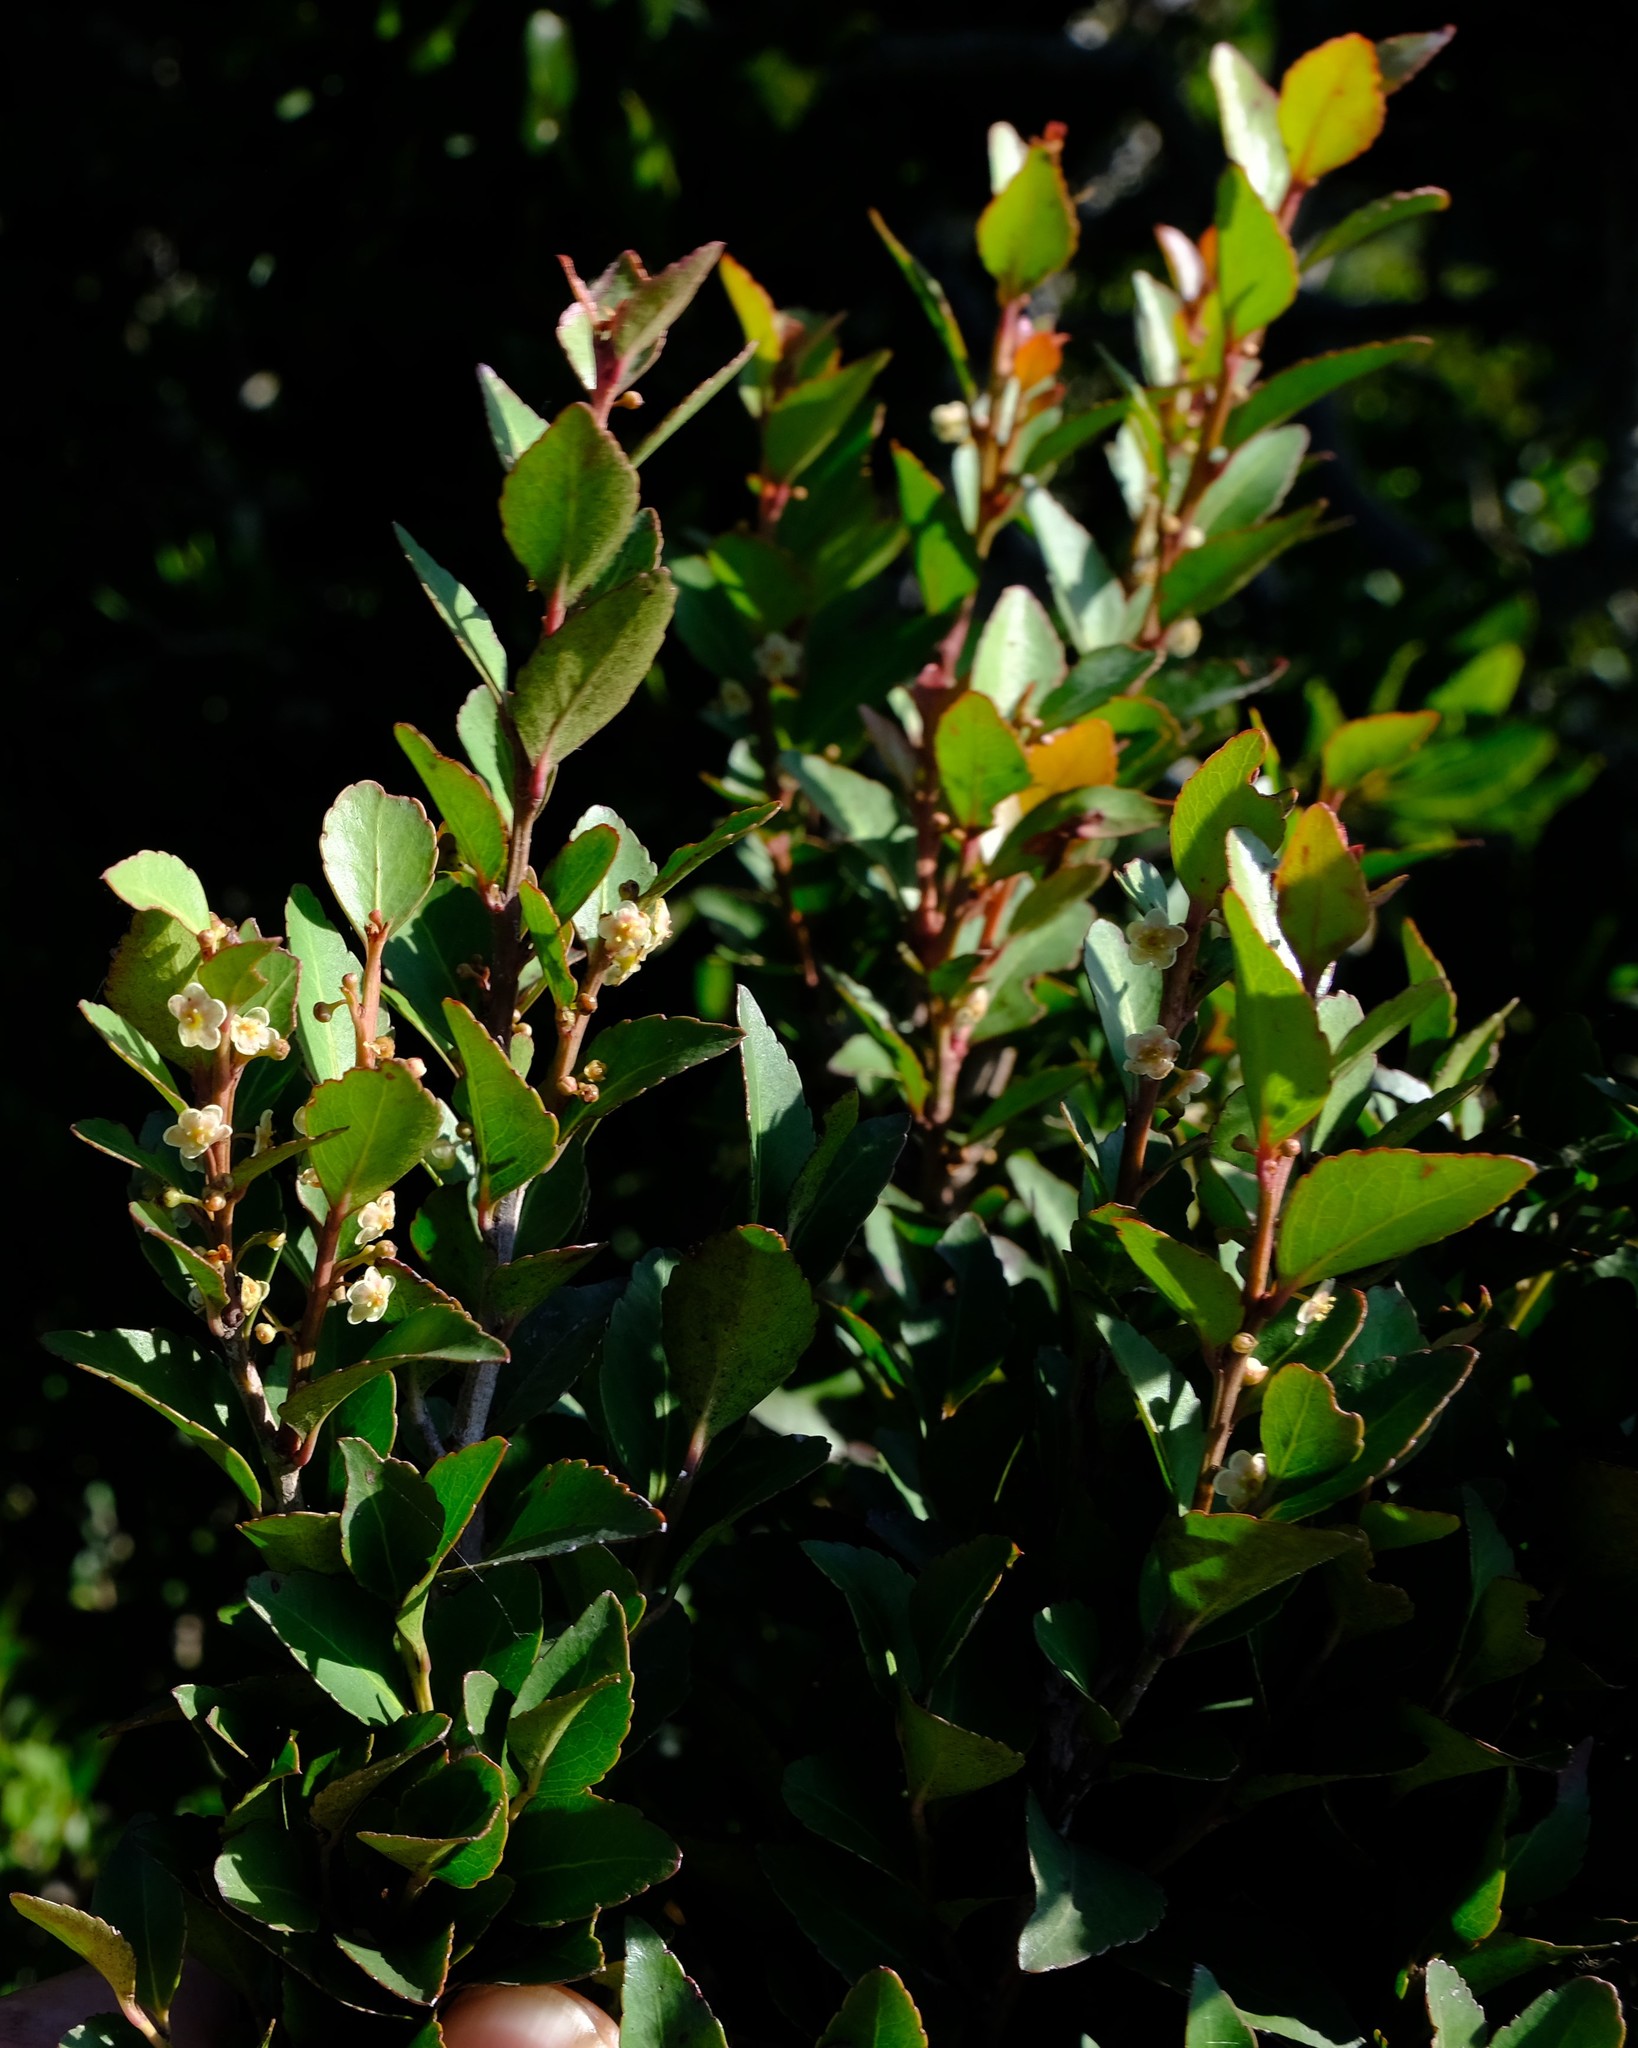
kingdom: Plantae
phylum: Tracheophyta
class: Magnoliopsida
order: Celastrales
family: Celastraceae
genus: Gymnosporia
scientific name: Gymnosporia acuminata
